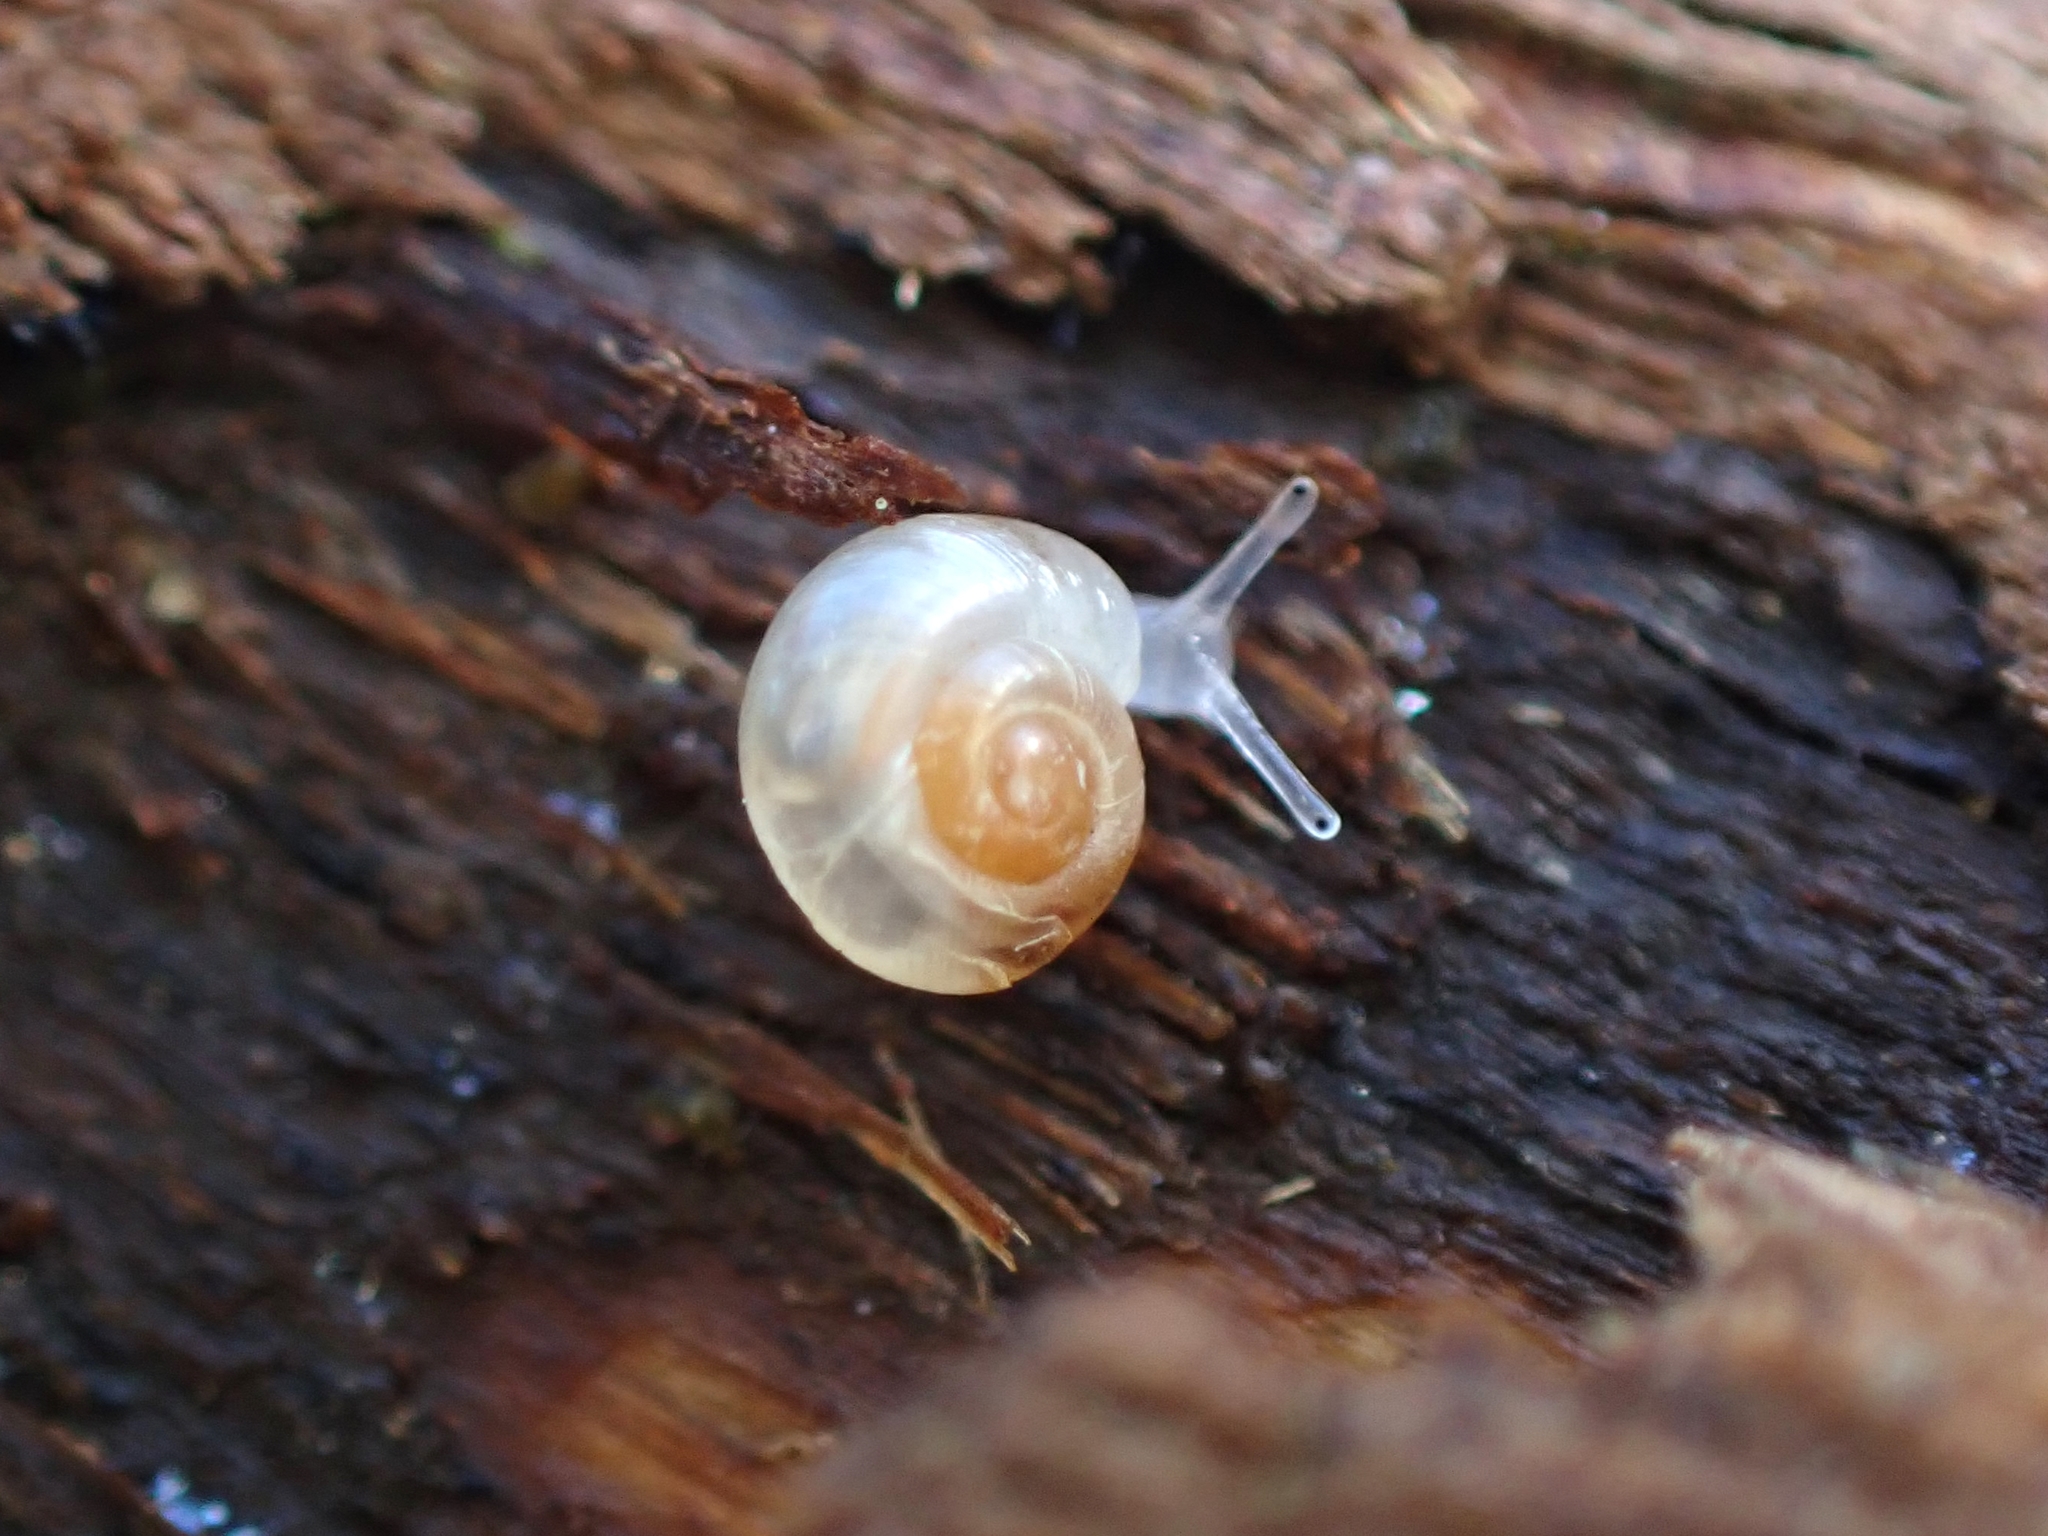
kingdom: Animalia
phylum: Mollusca
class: Gastropoda
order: Stylommatophora
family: Valloniidae
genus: Vallonia
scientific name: Vallonia excentrica
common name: Eccentric grass snail
